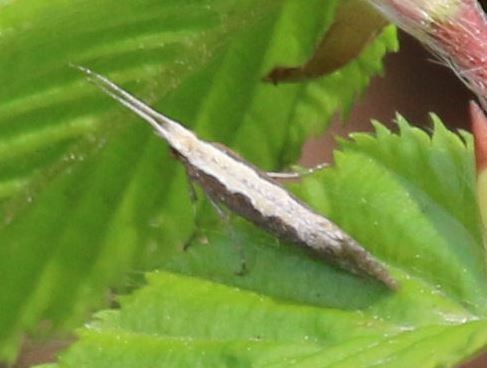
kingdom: Animalia
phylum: Arthropoda
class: Insecta
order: Lepidoptera
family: Plutellidae
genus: Plutella
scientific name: Plutella xylostella
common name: Diamond-back moth
